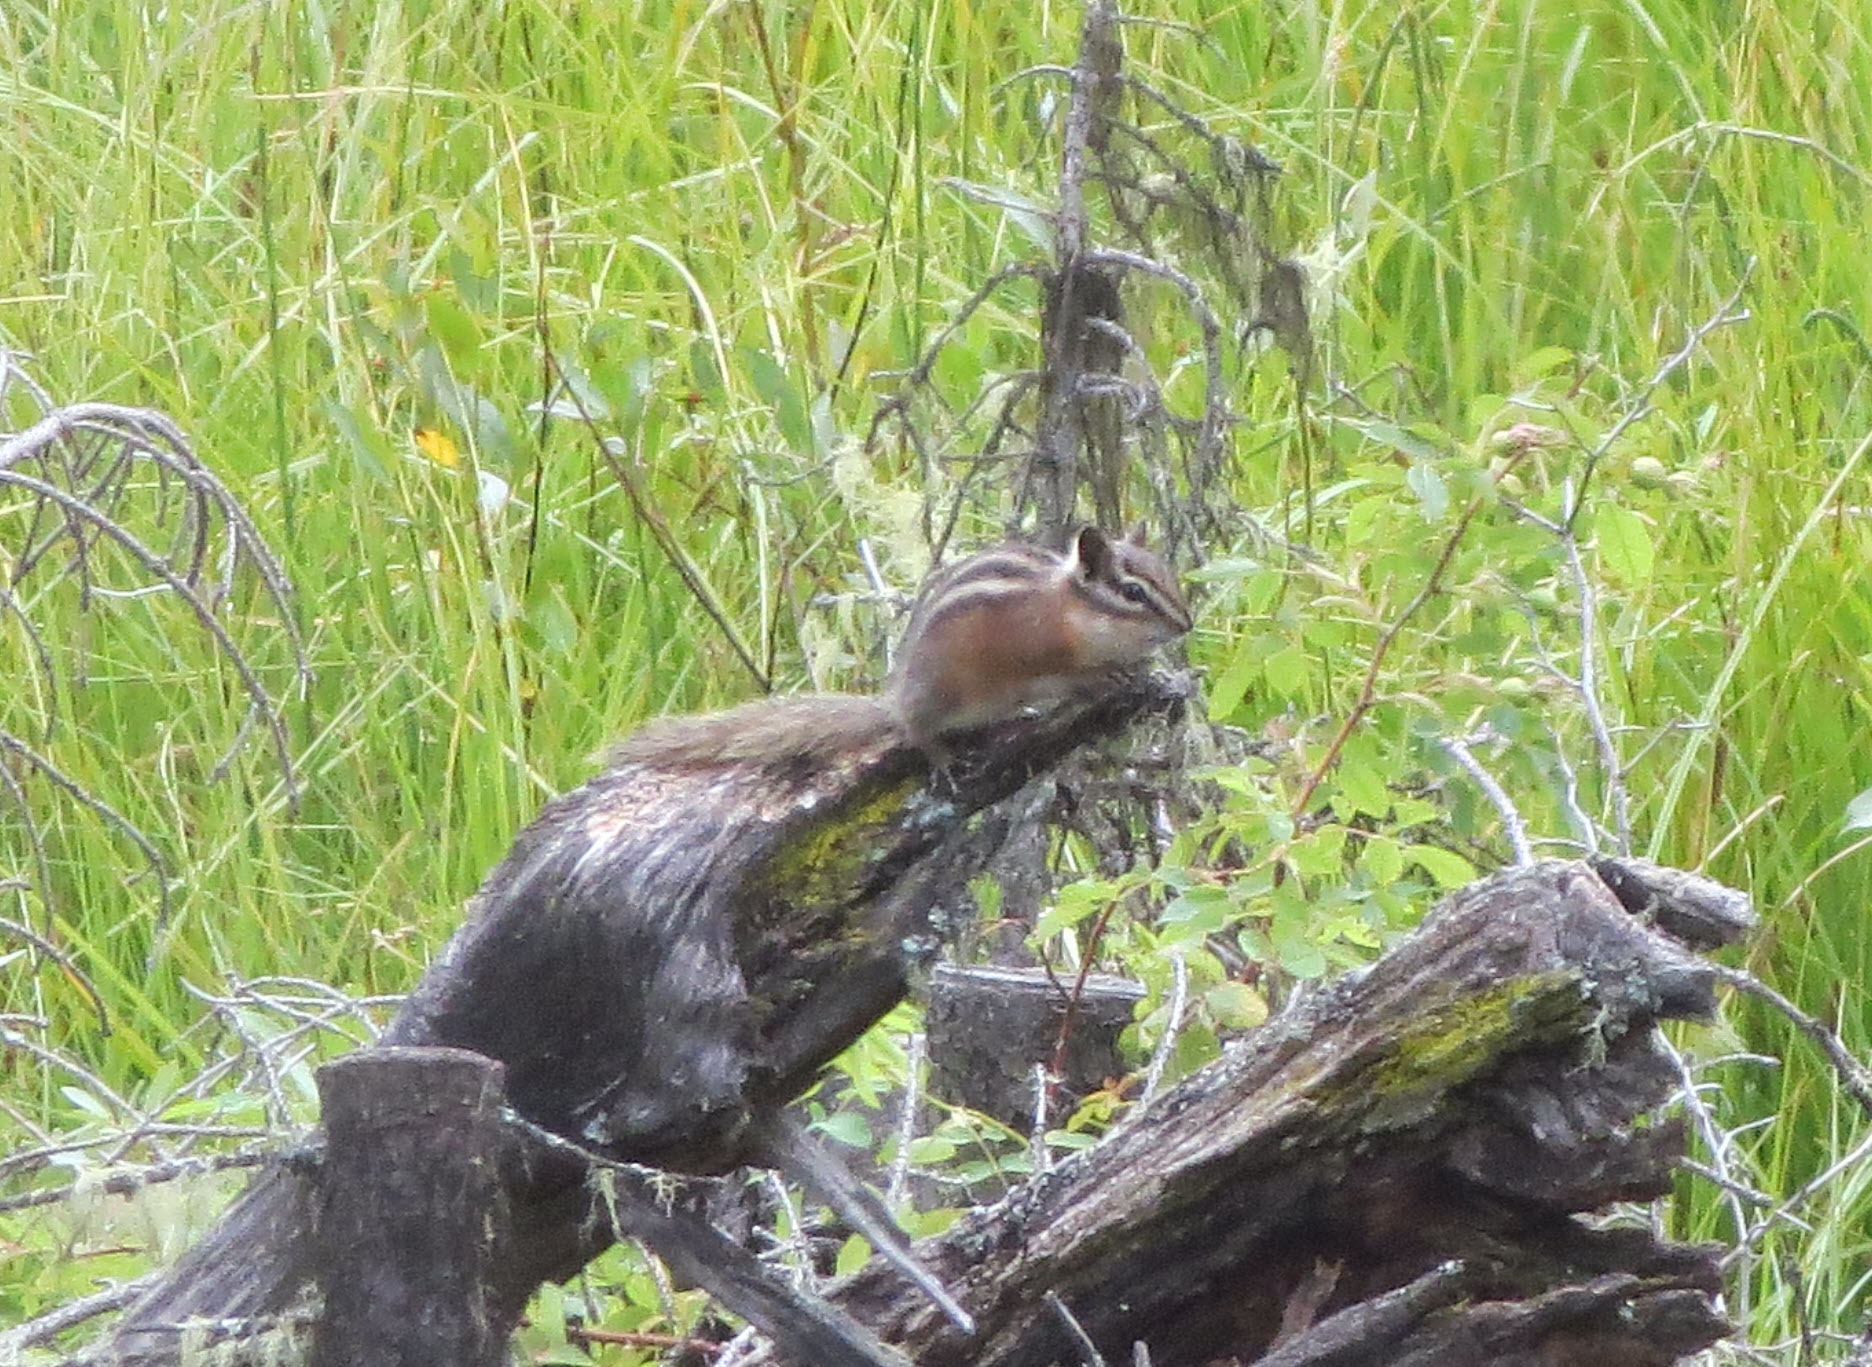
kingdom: Animalia
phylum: Chordata
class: Mammalia
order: Rodentia
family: Sciuridae
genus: Tamias
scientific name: Tamias amoenus
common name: Yellow-pine chipmunk
